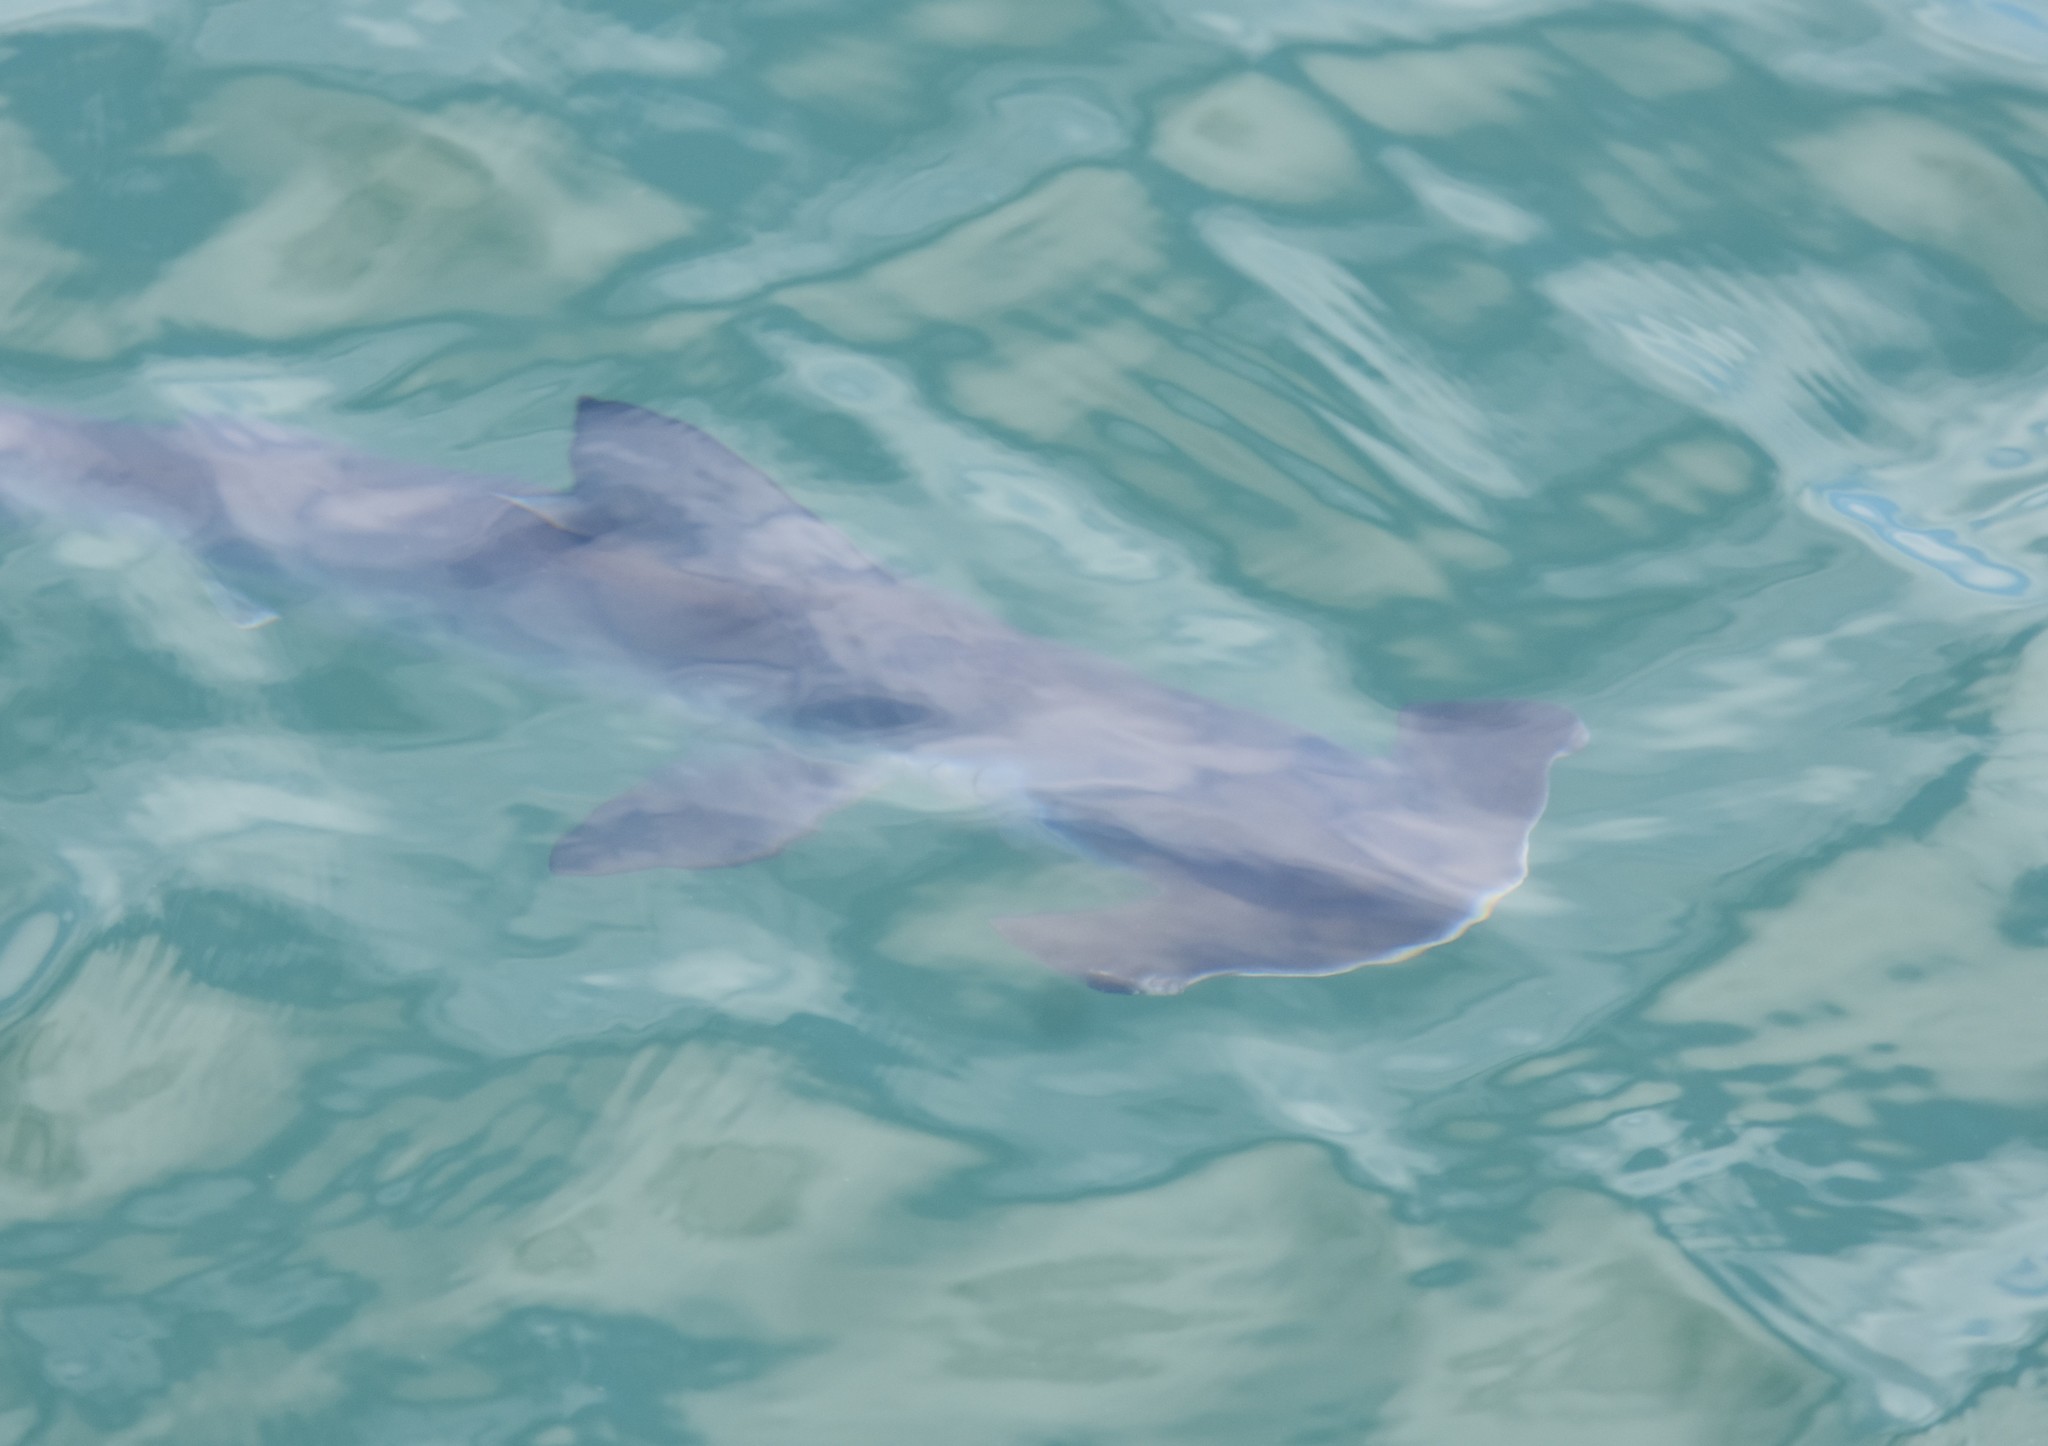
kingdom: Animalia
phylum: Chordata
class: Elasmobranchii
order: Carcharhiniformes
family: Sphyrnidae
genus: Sphyrna
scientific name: Sphyrna zygaena
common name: Smooth hammerhead
